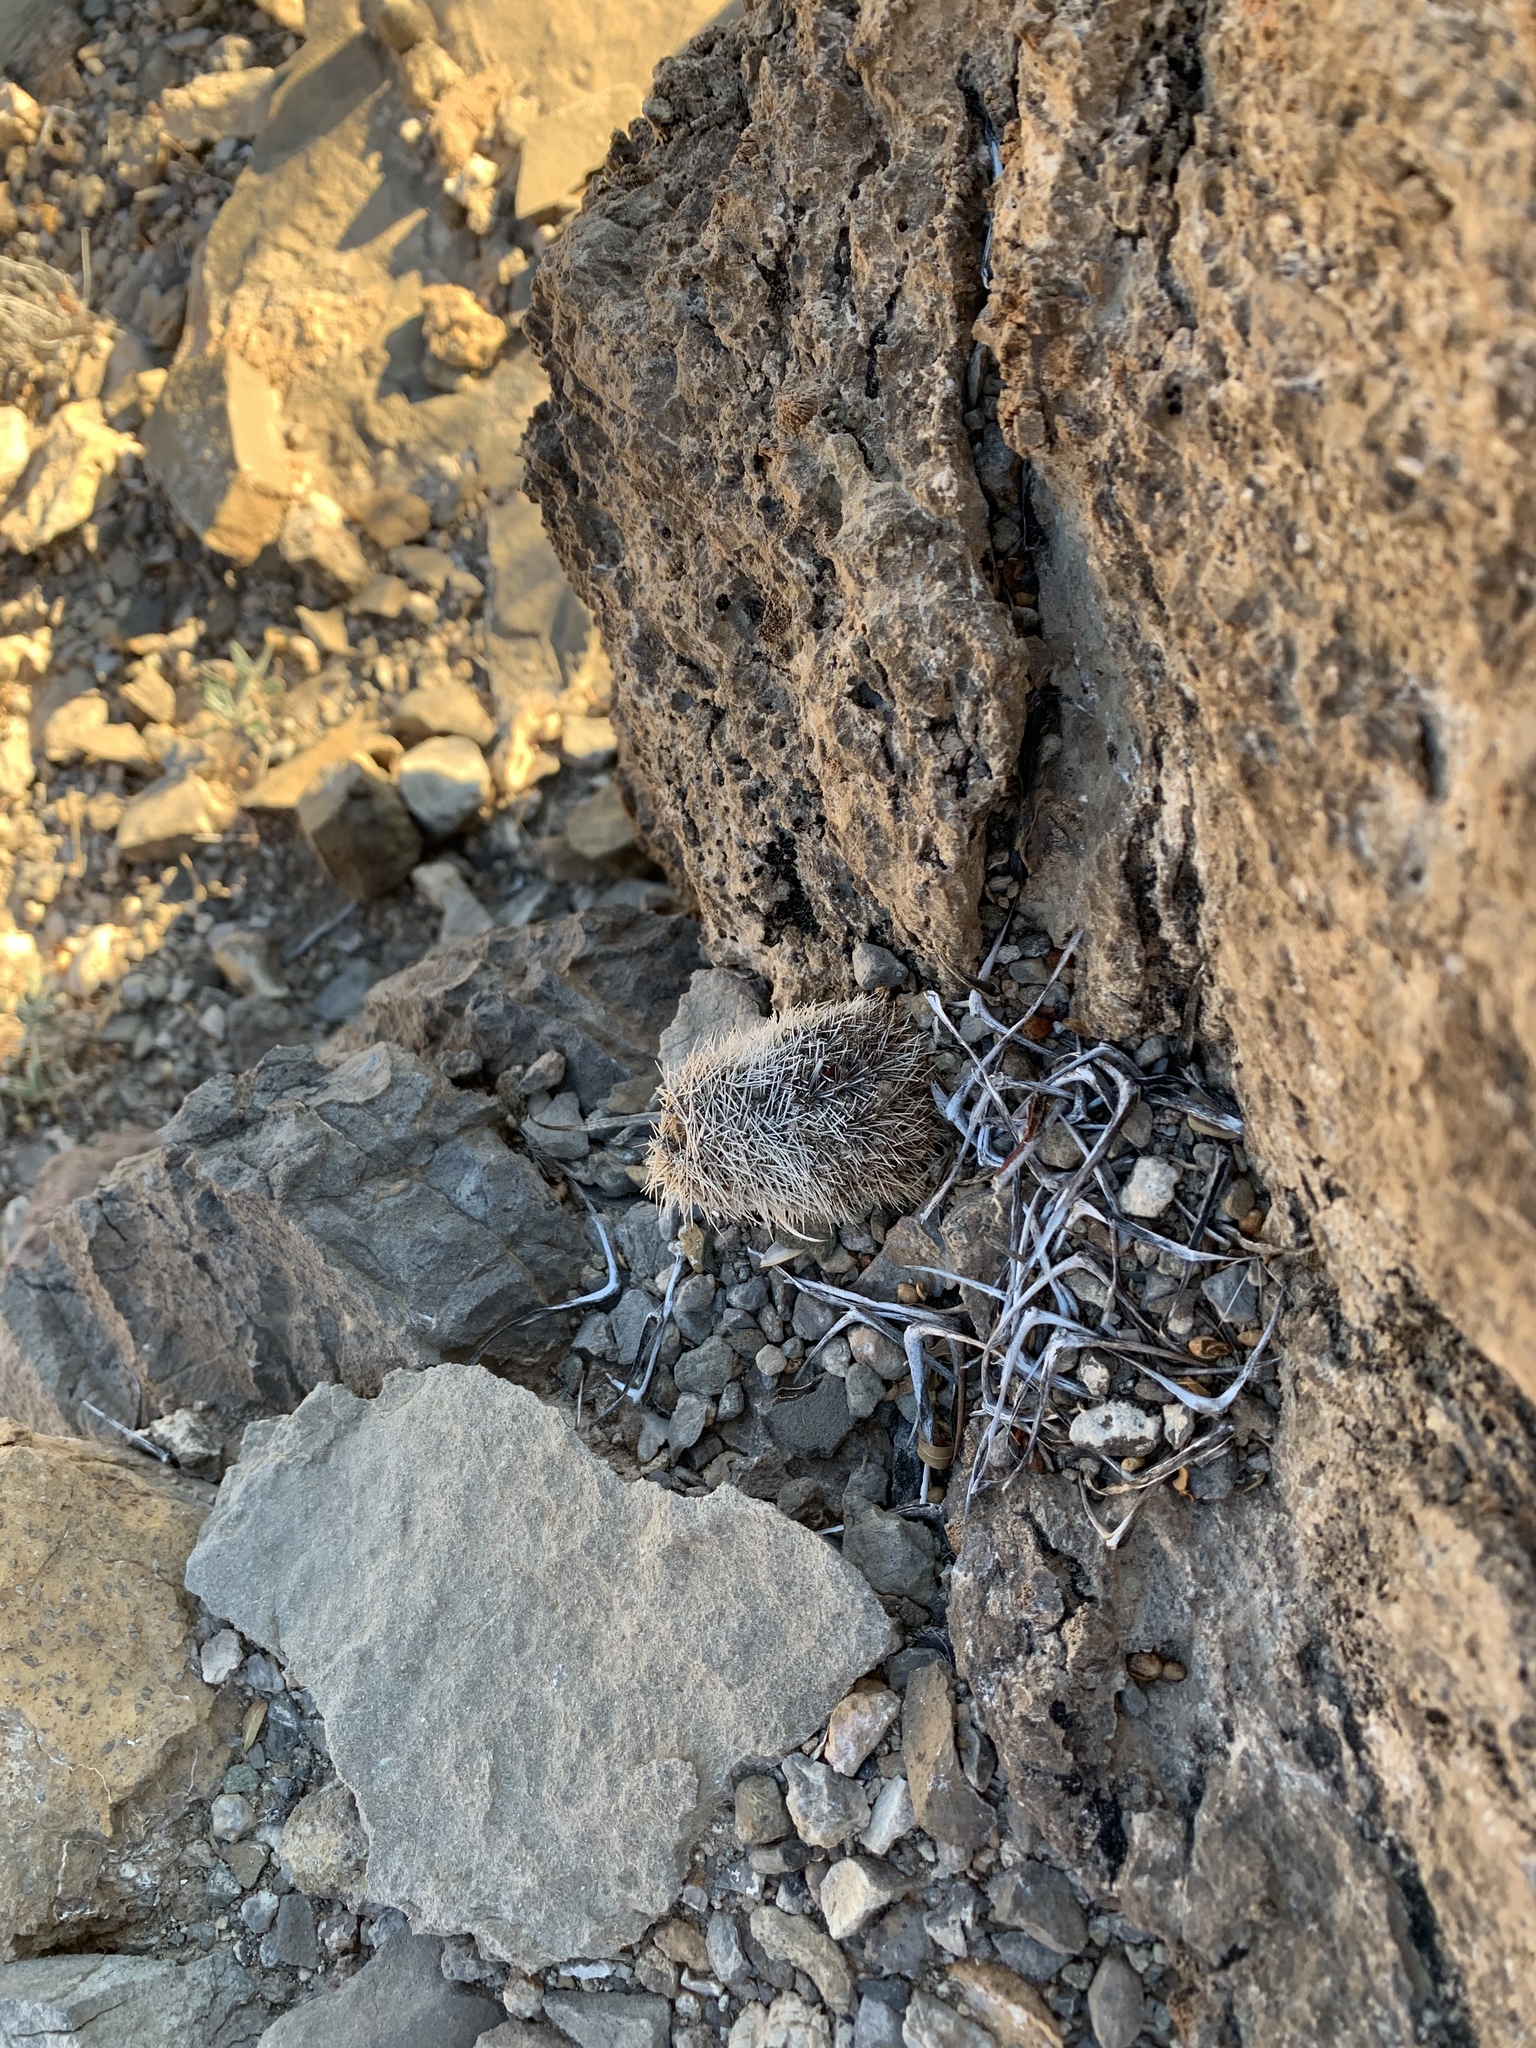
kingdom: Plantae
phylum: Tracheophyta
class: Magnoliopsida
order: Caryophyllales
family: Cactaceae
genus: Echinocereus
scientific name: Echinocereus dasyacanthus
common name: Spiny hedgehog cactus
